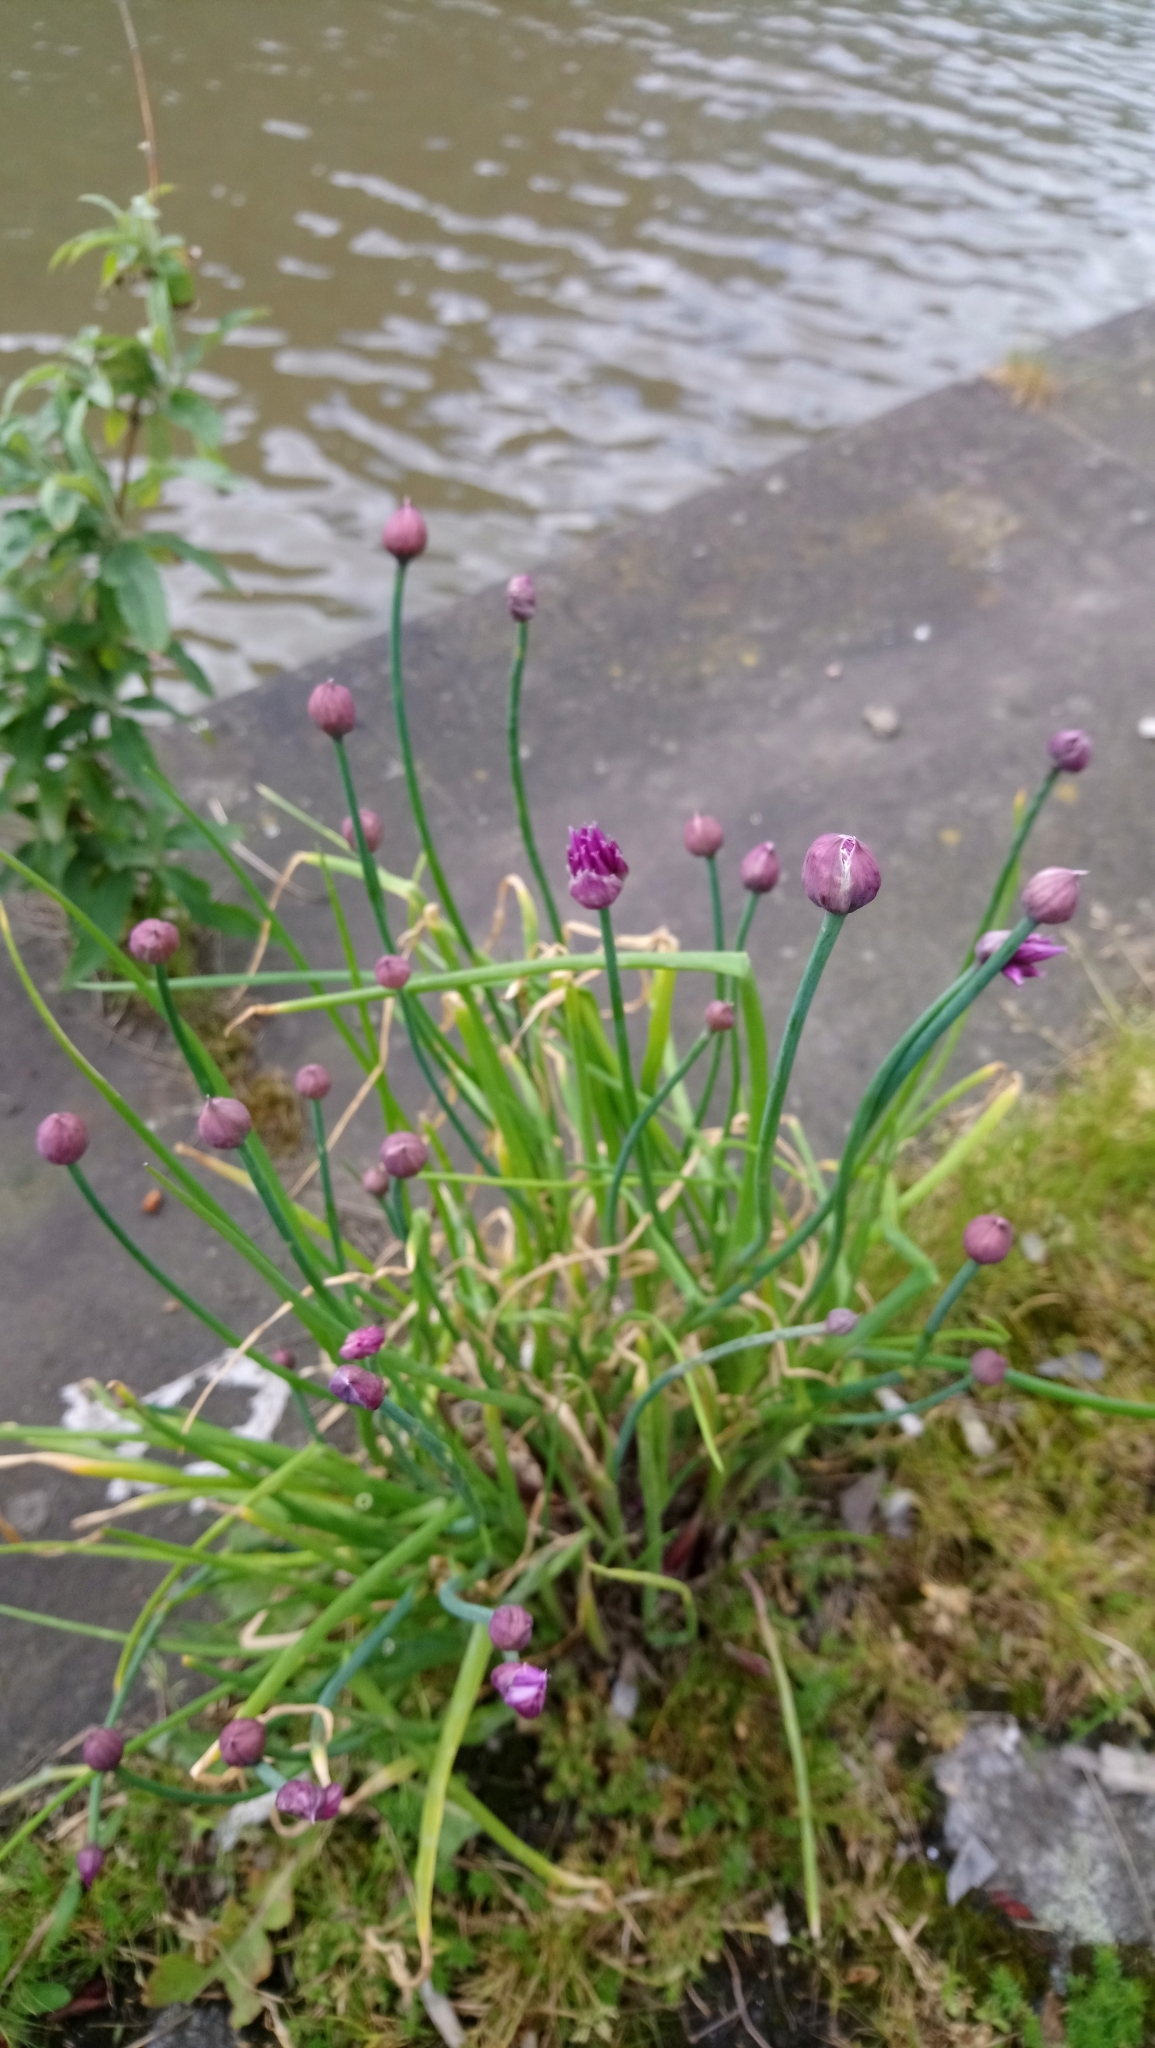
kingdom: Plantae
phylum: Tracheophyta
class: Liliopsida
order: Asparagales
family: Amaryllidaceae
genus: Allium
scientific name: Allium schoenoprasum
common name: Chives
